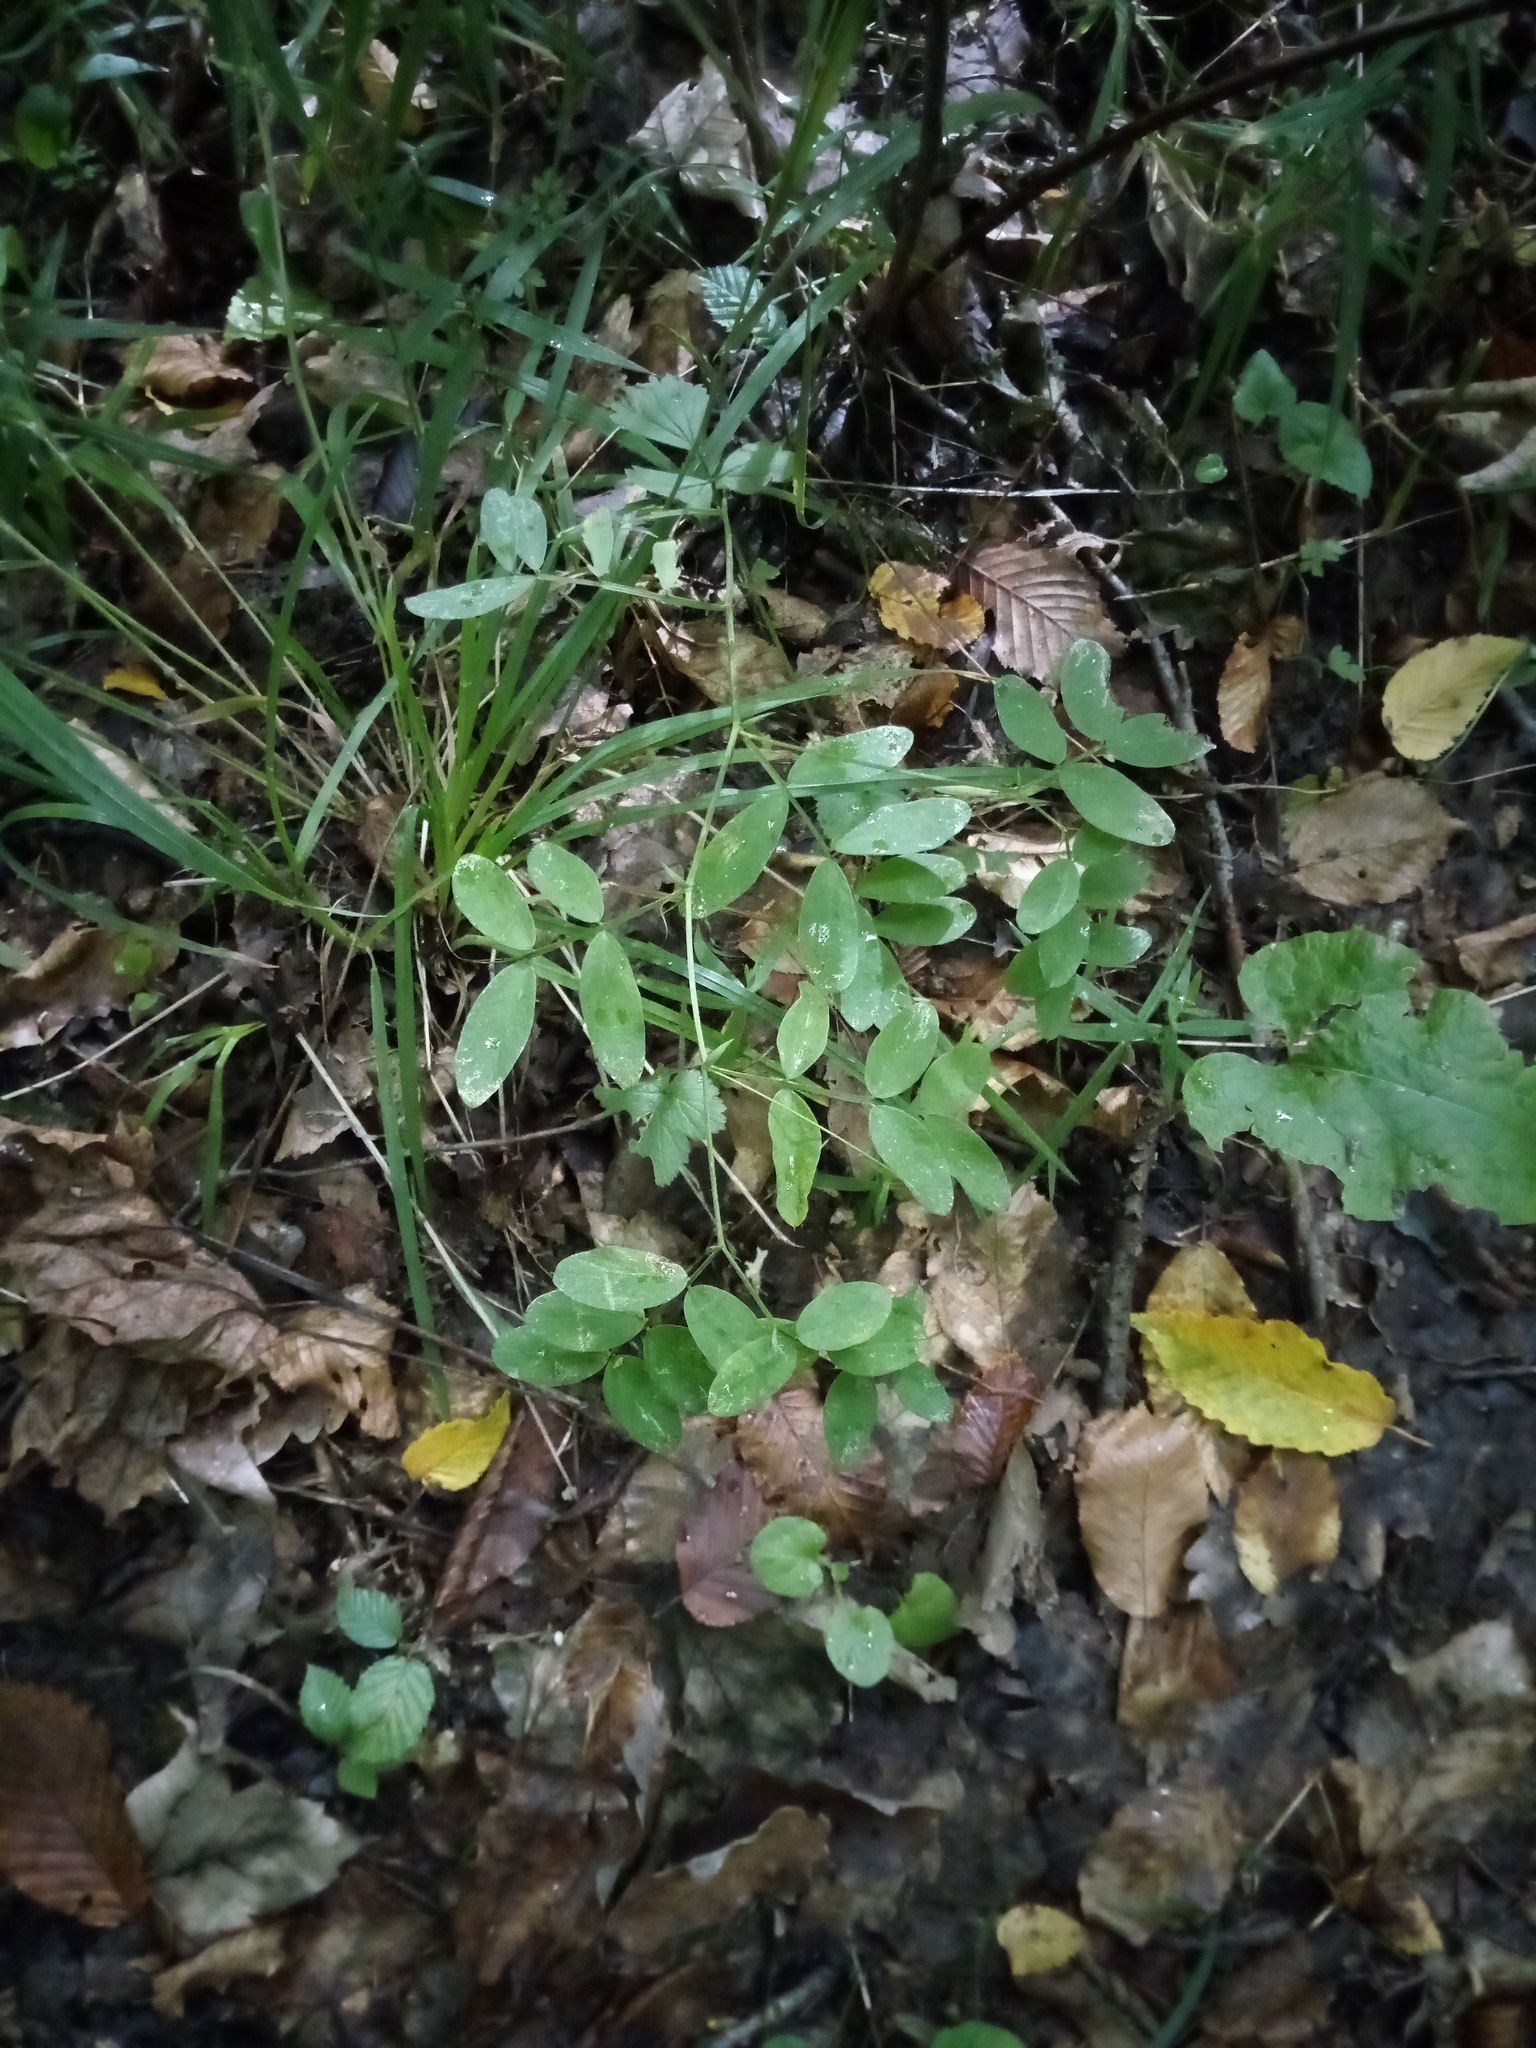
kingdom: Plantae
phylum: Tracheophyta
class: Magnoliopsida
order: Fabales
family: Fabaceae
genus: Lathyrus
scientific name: Lathyrus niger
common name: Black pea
